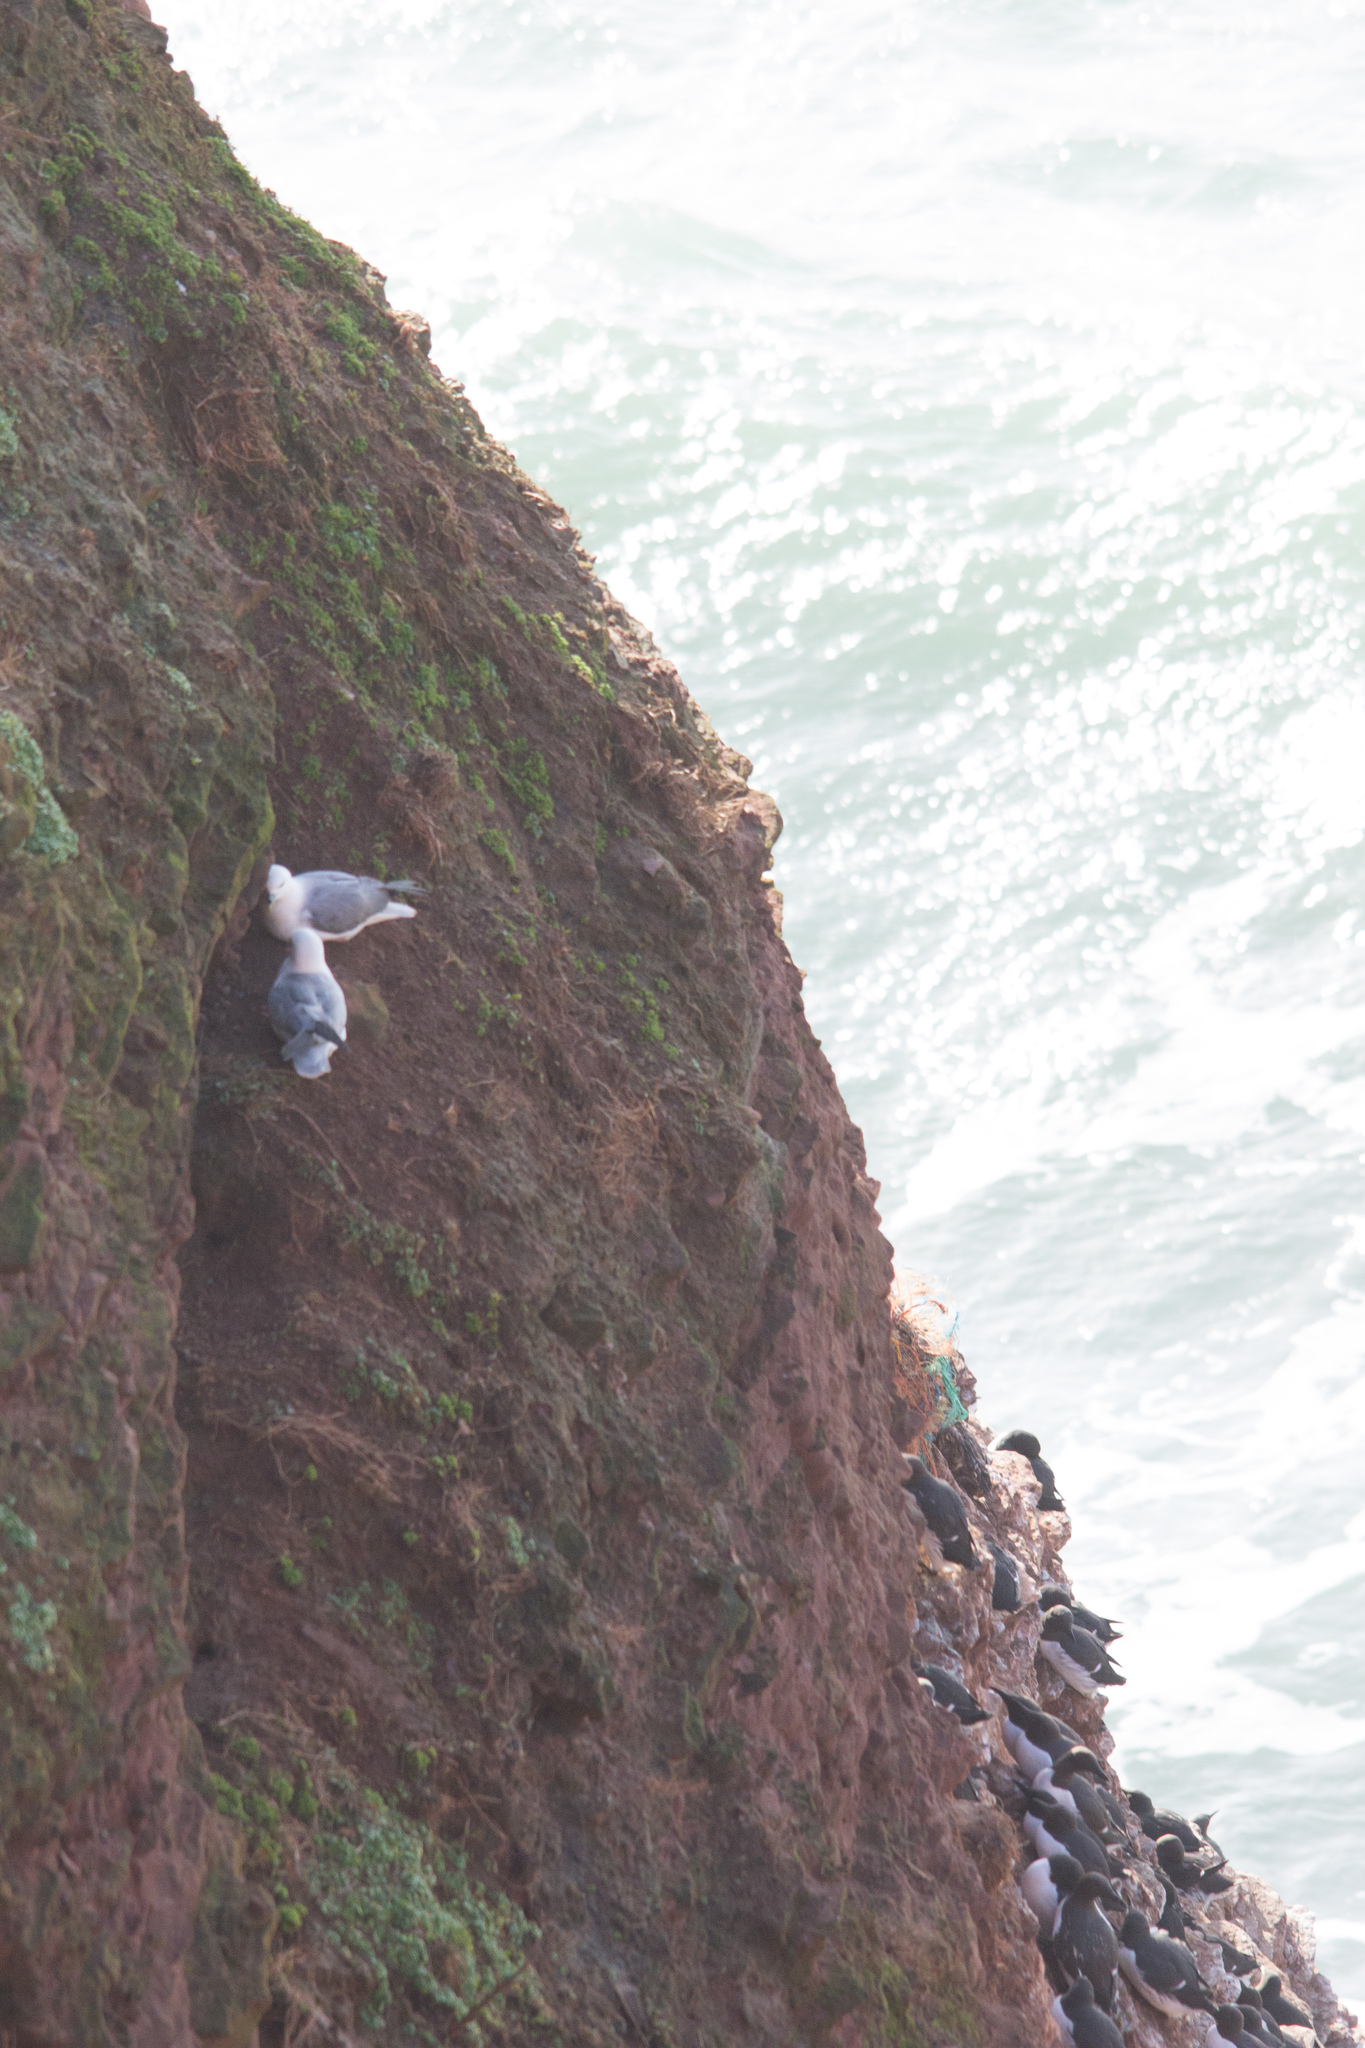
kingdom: Animalia
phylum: Chordata
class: Aves
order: Procellariiformes
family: Procellariidae
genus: Fulmarus
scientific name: Fulmarus glacialis
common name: Northern fulmar
